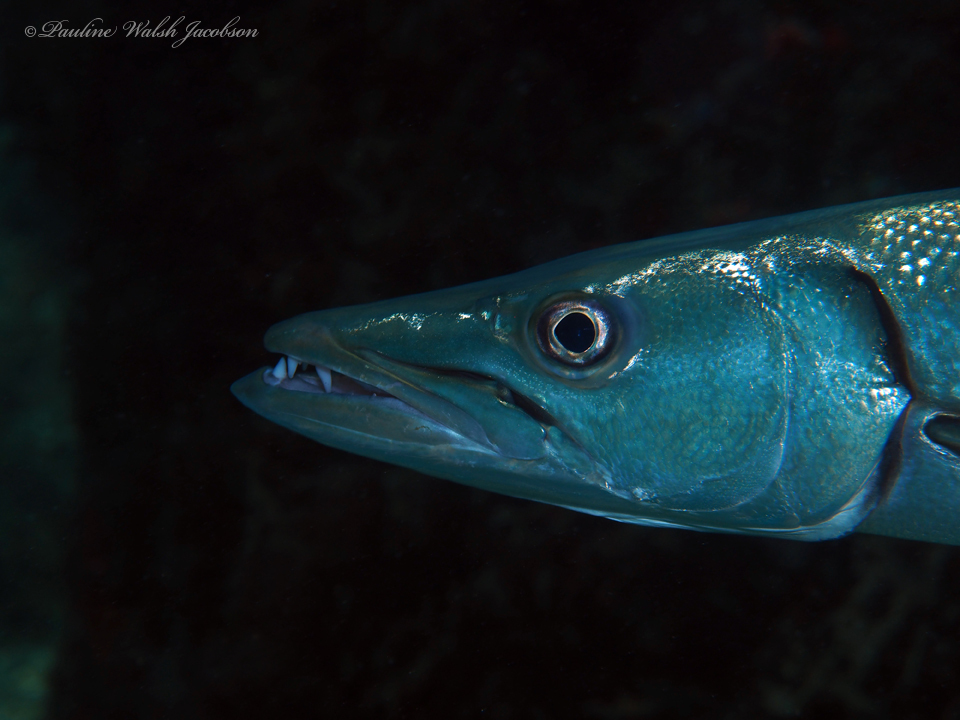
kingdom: Animalia
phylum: Chordata
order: Perciformes
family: Sphyraenidae
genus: Sphyraena
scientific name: Sphyraena barracuda
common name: Great barracuda
